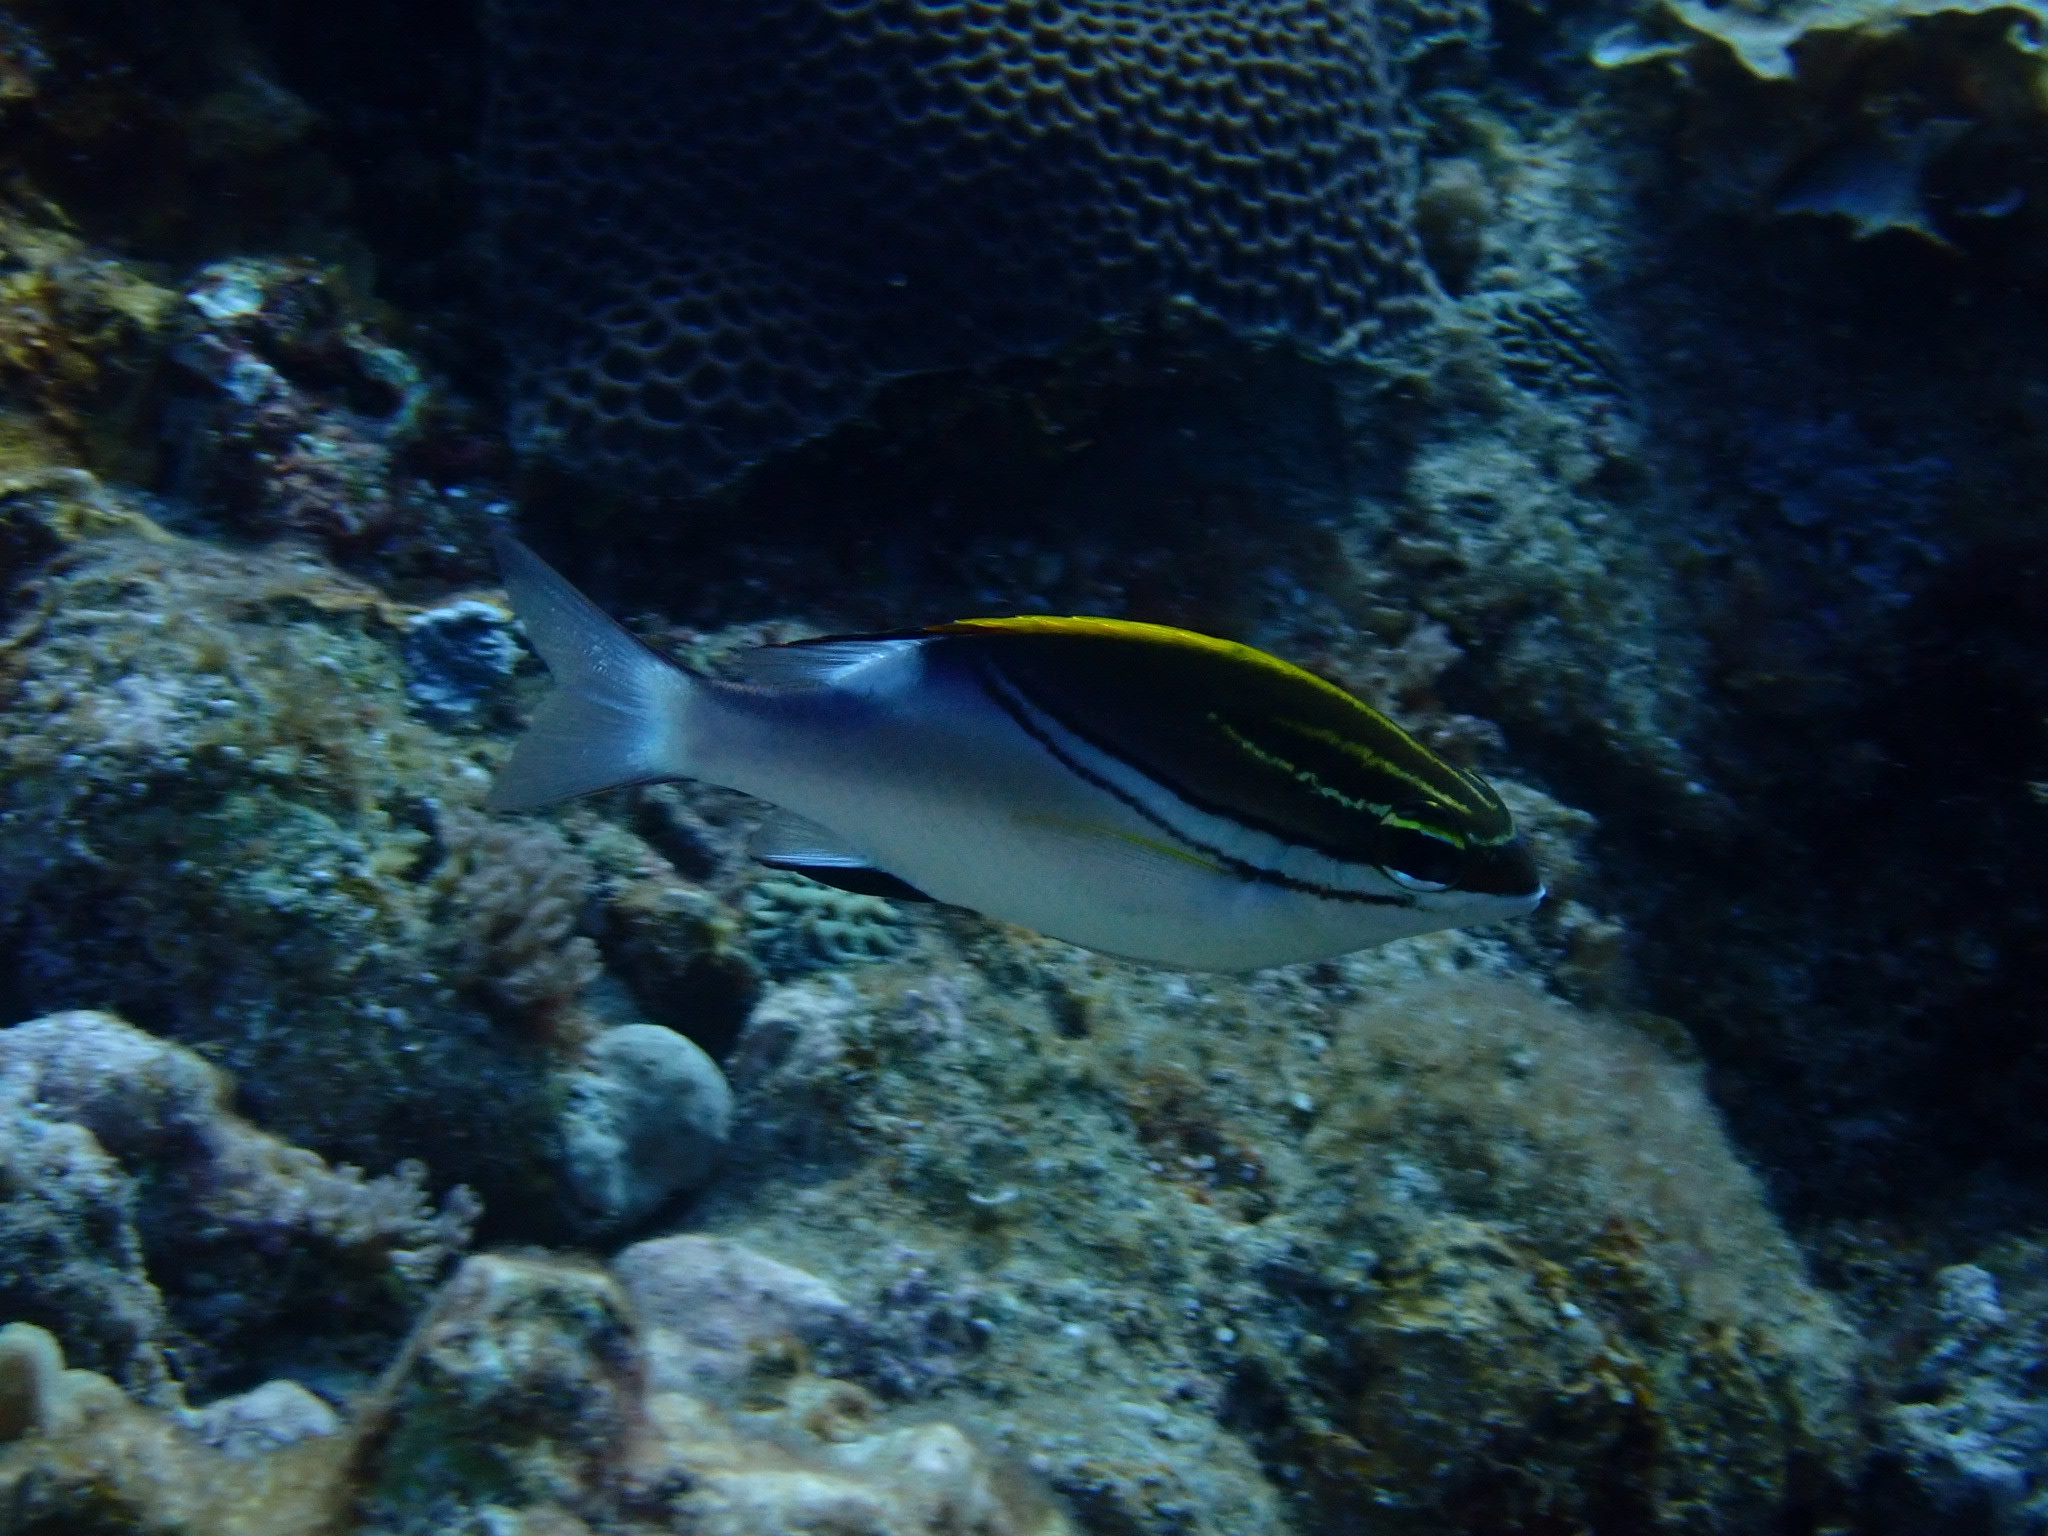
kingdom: Animalia
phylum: Chordata
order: Perciformes
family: Nemipteridae
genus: Scolopsis
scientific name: Scolopsis bilineata
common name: Two-lined monocle bream
